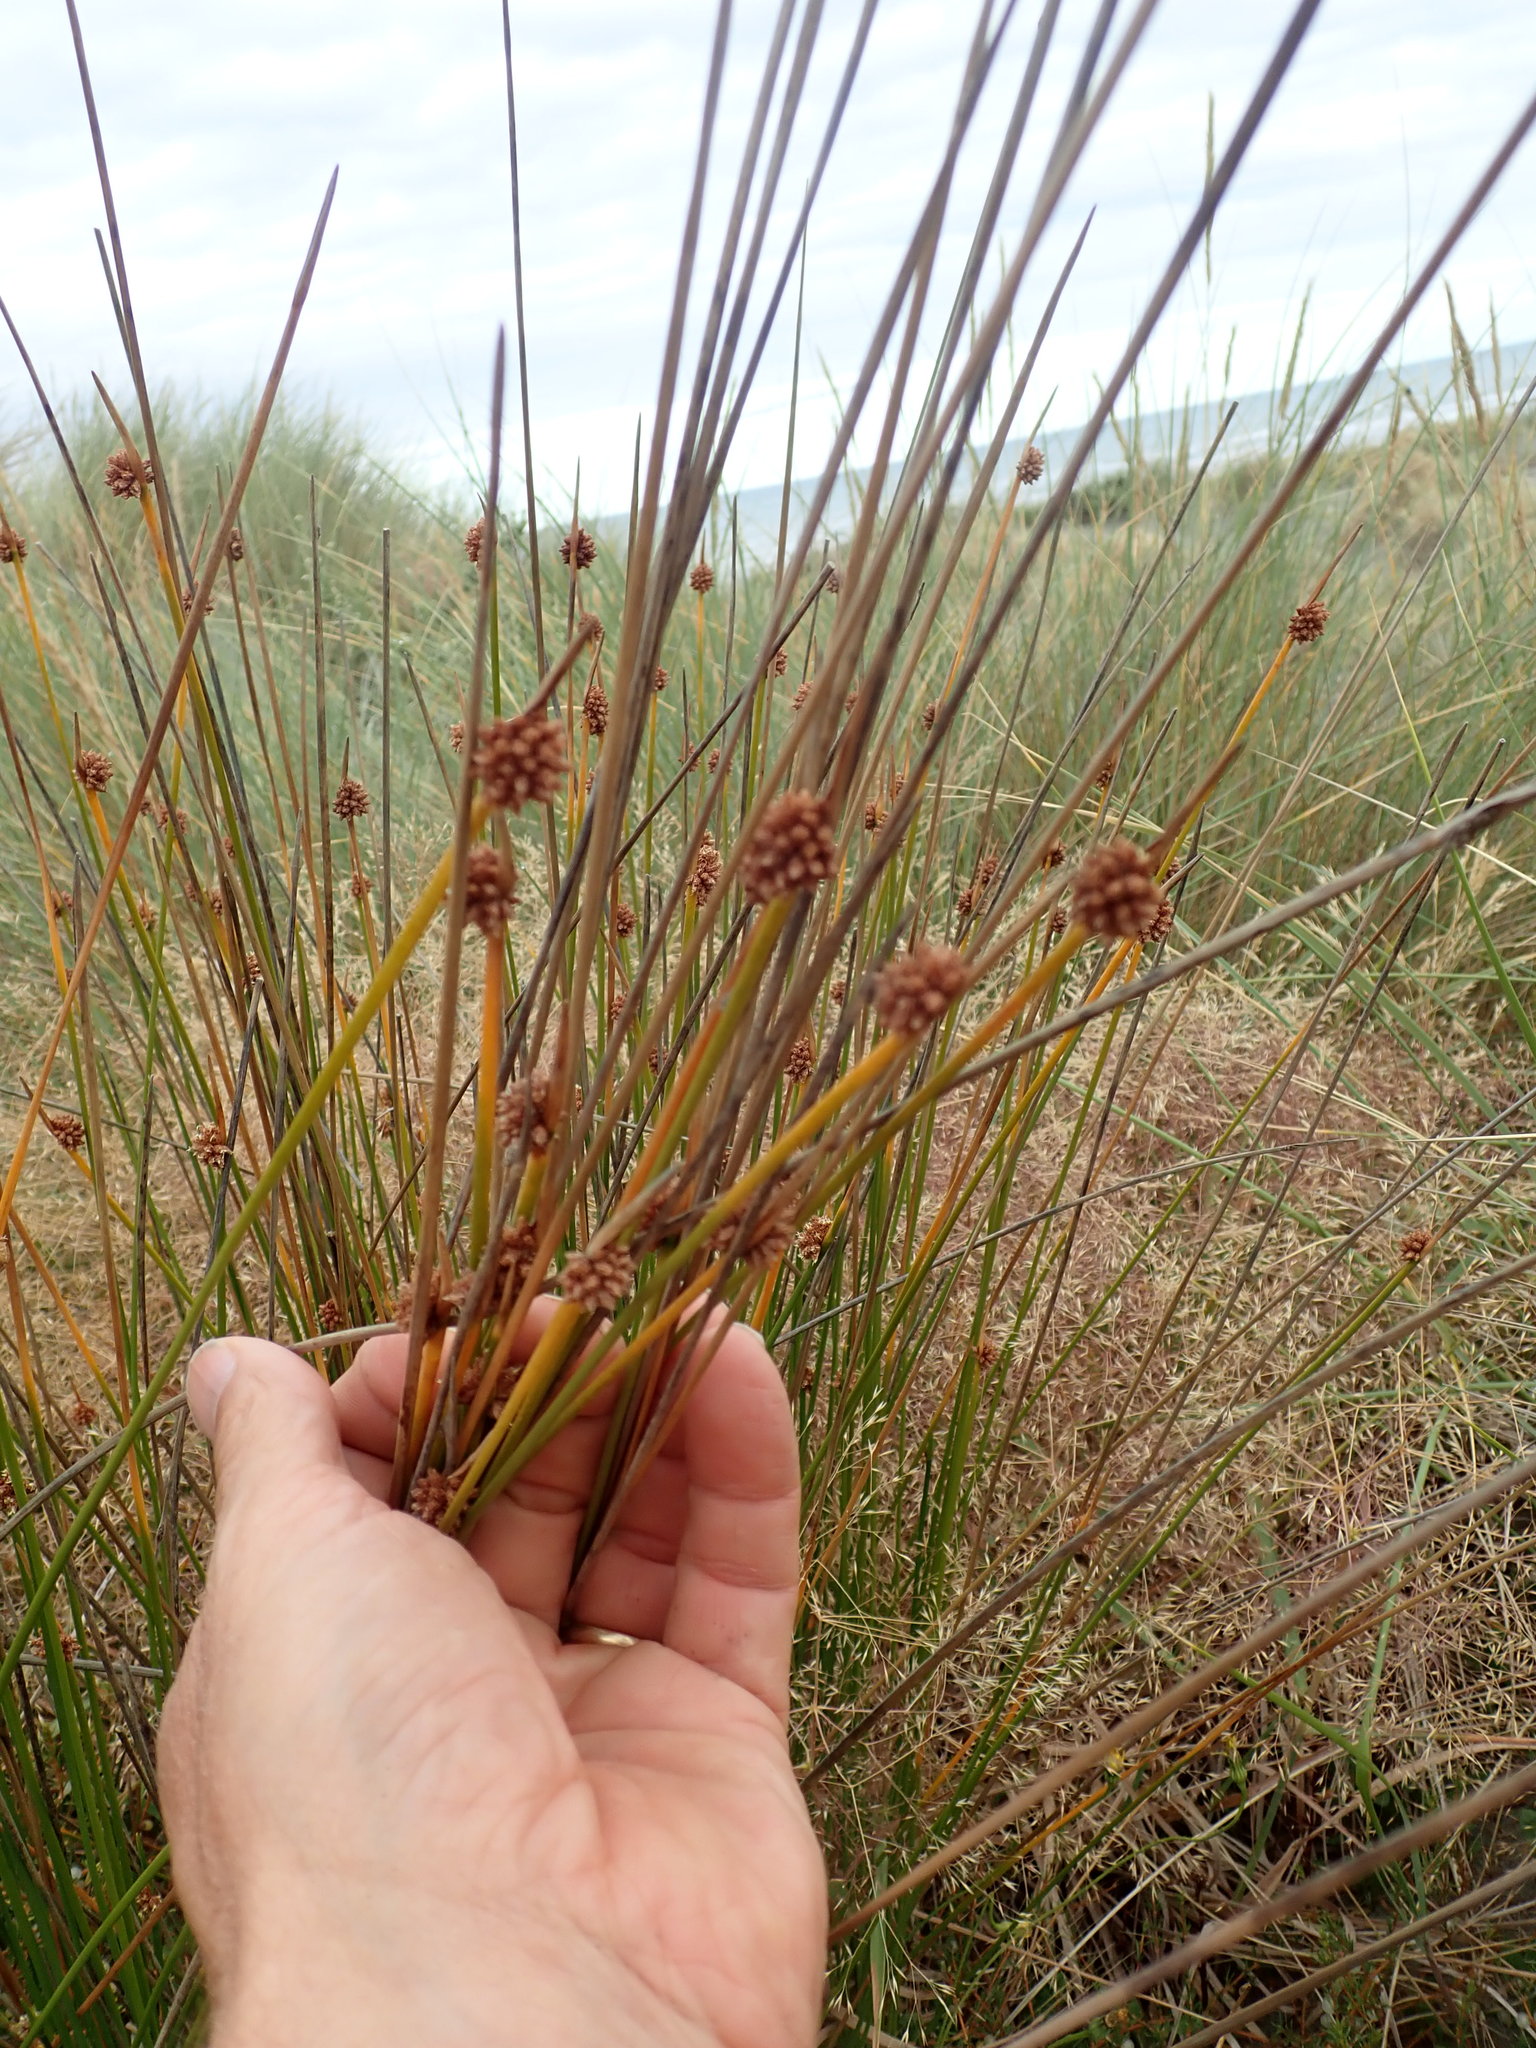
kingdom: Plantae
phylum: Tracheophyta
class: Liliopsida
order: Poales
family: Cyperaceae
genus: Ficinia
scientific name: Ficinia nodosa
